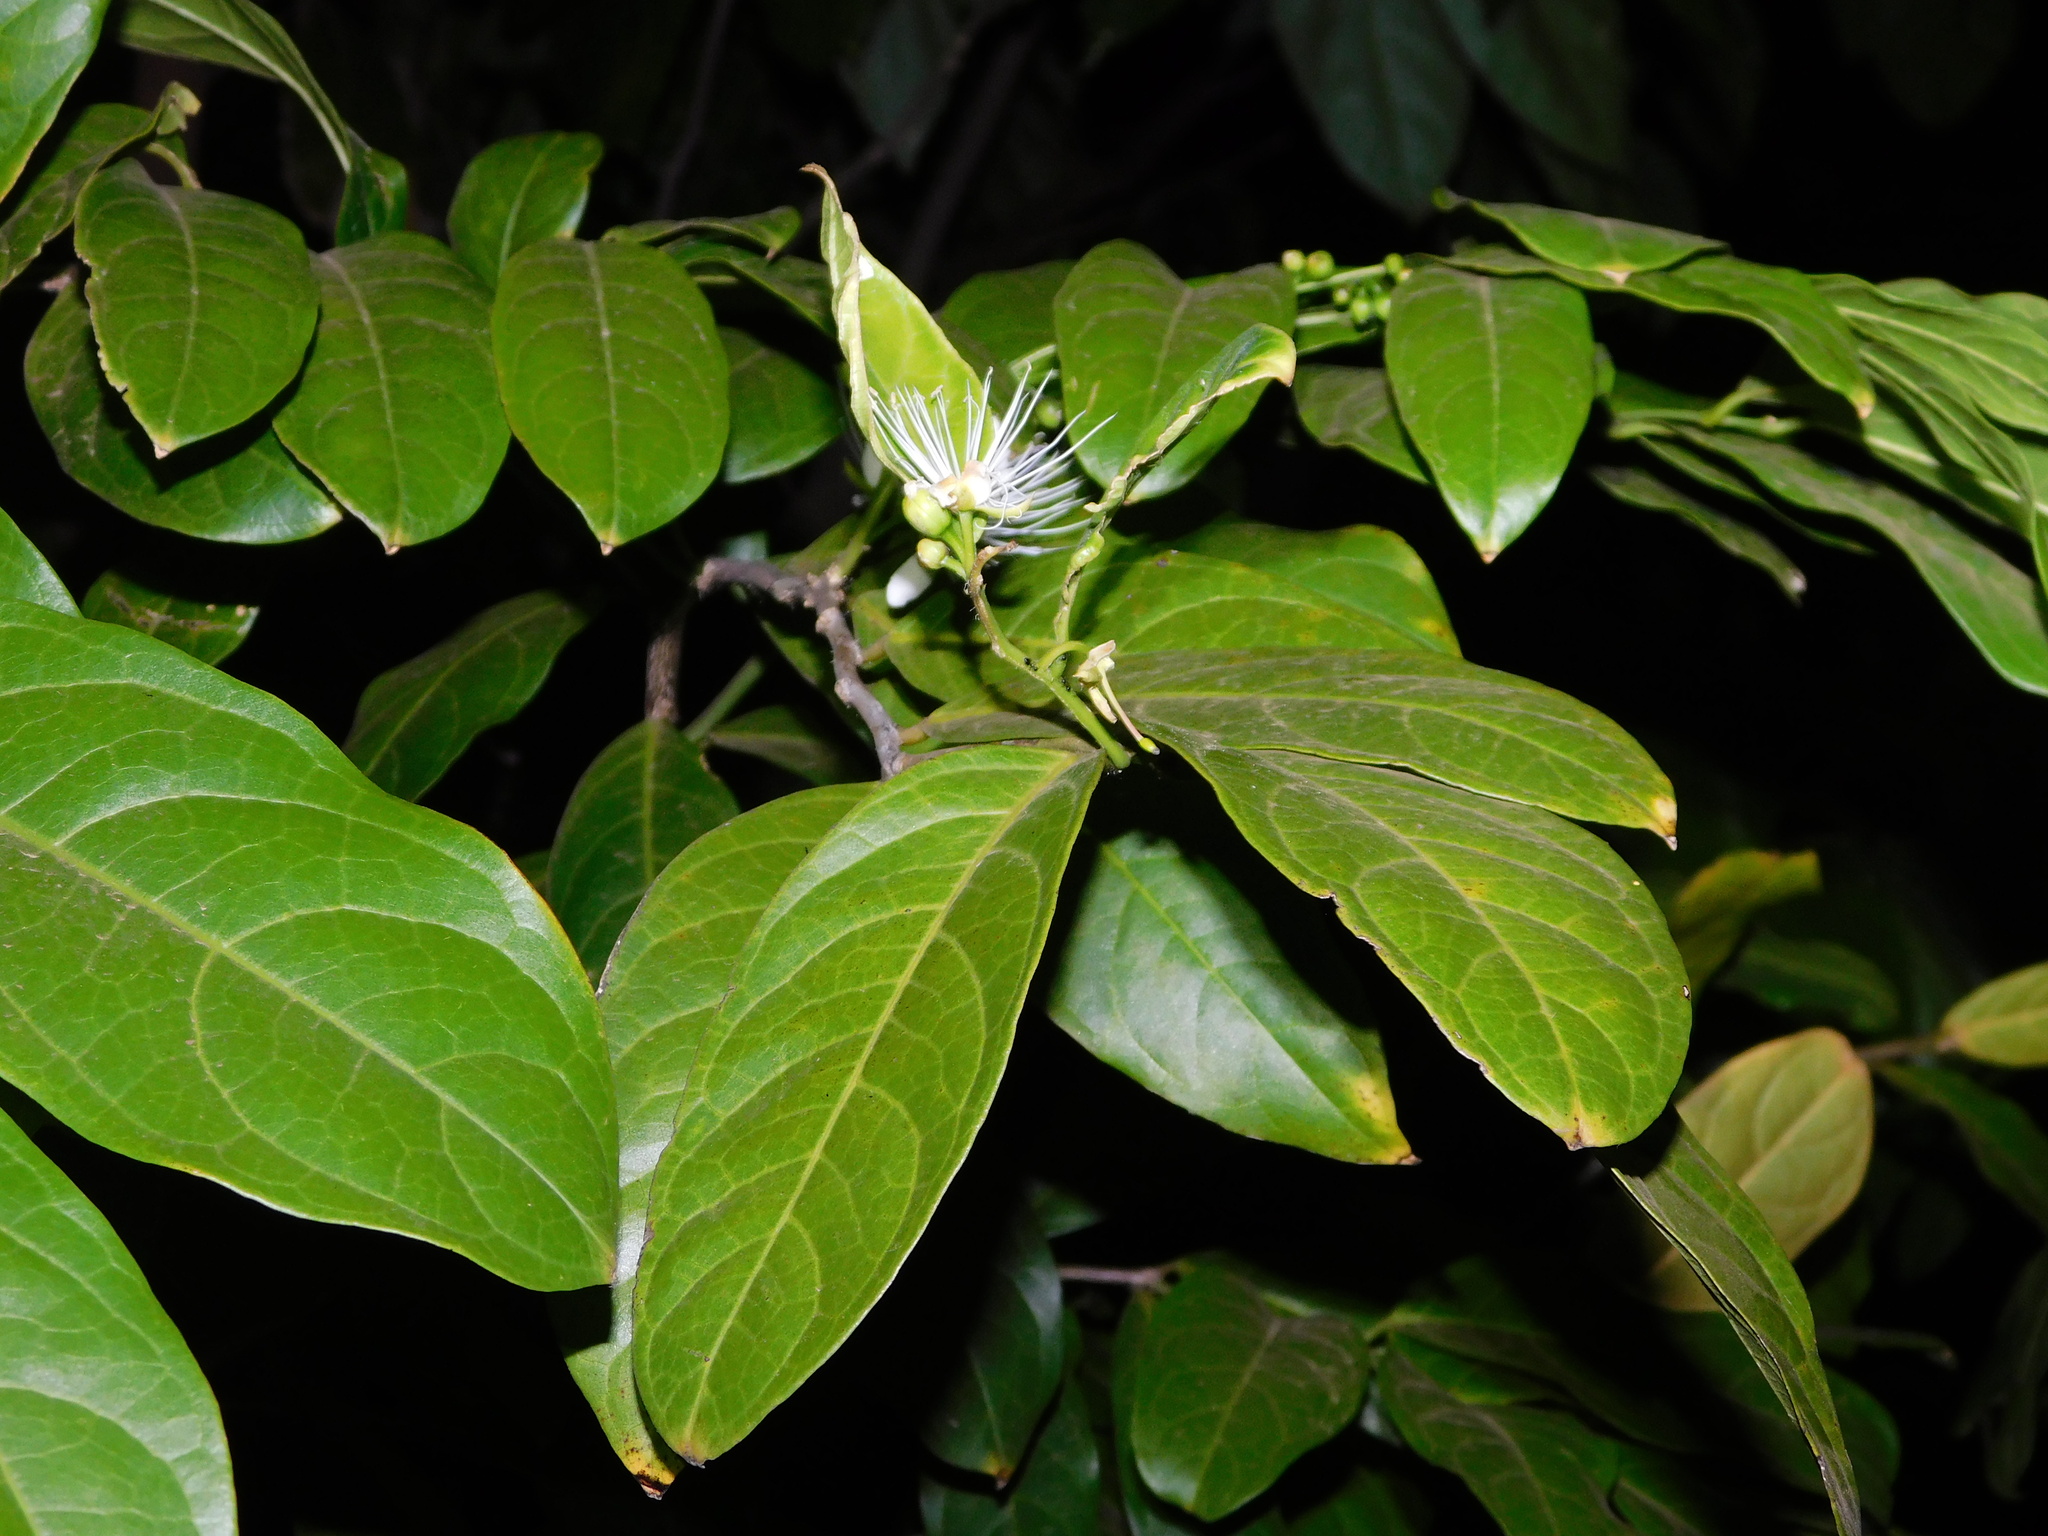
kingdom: Plantae
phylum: Tracheophyta
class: Magnoliopsida
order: Brassicales
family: Capparaceae
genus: Capparis
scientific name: Capparis micracantha
